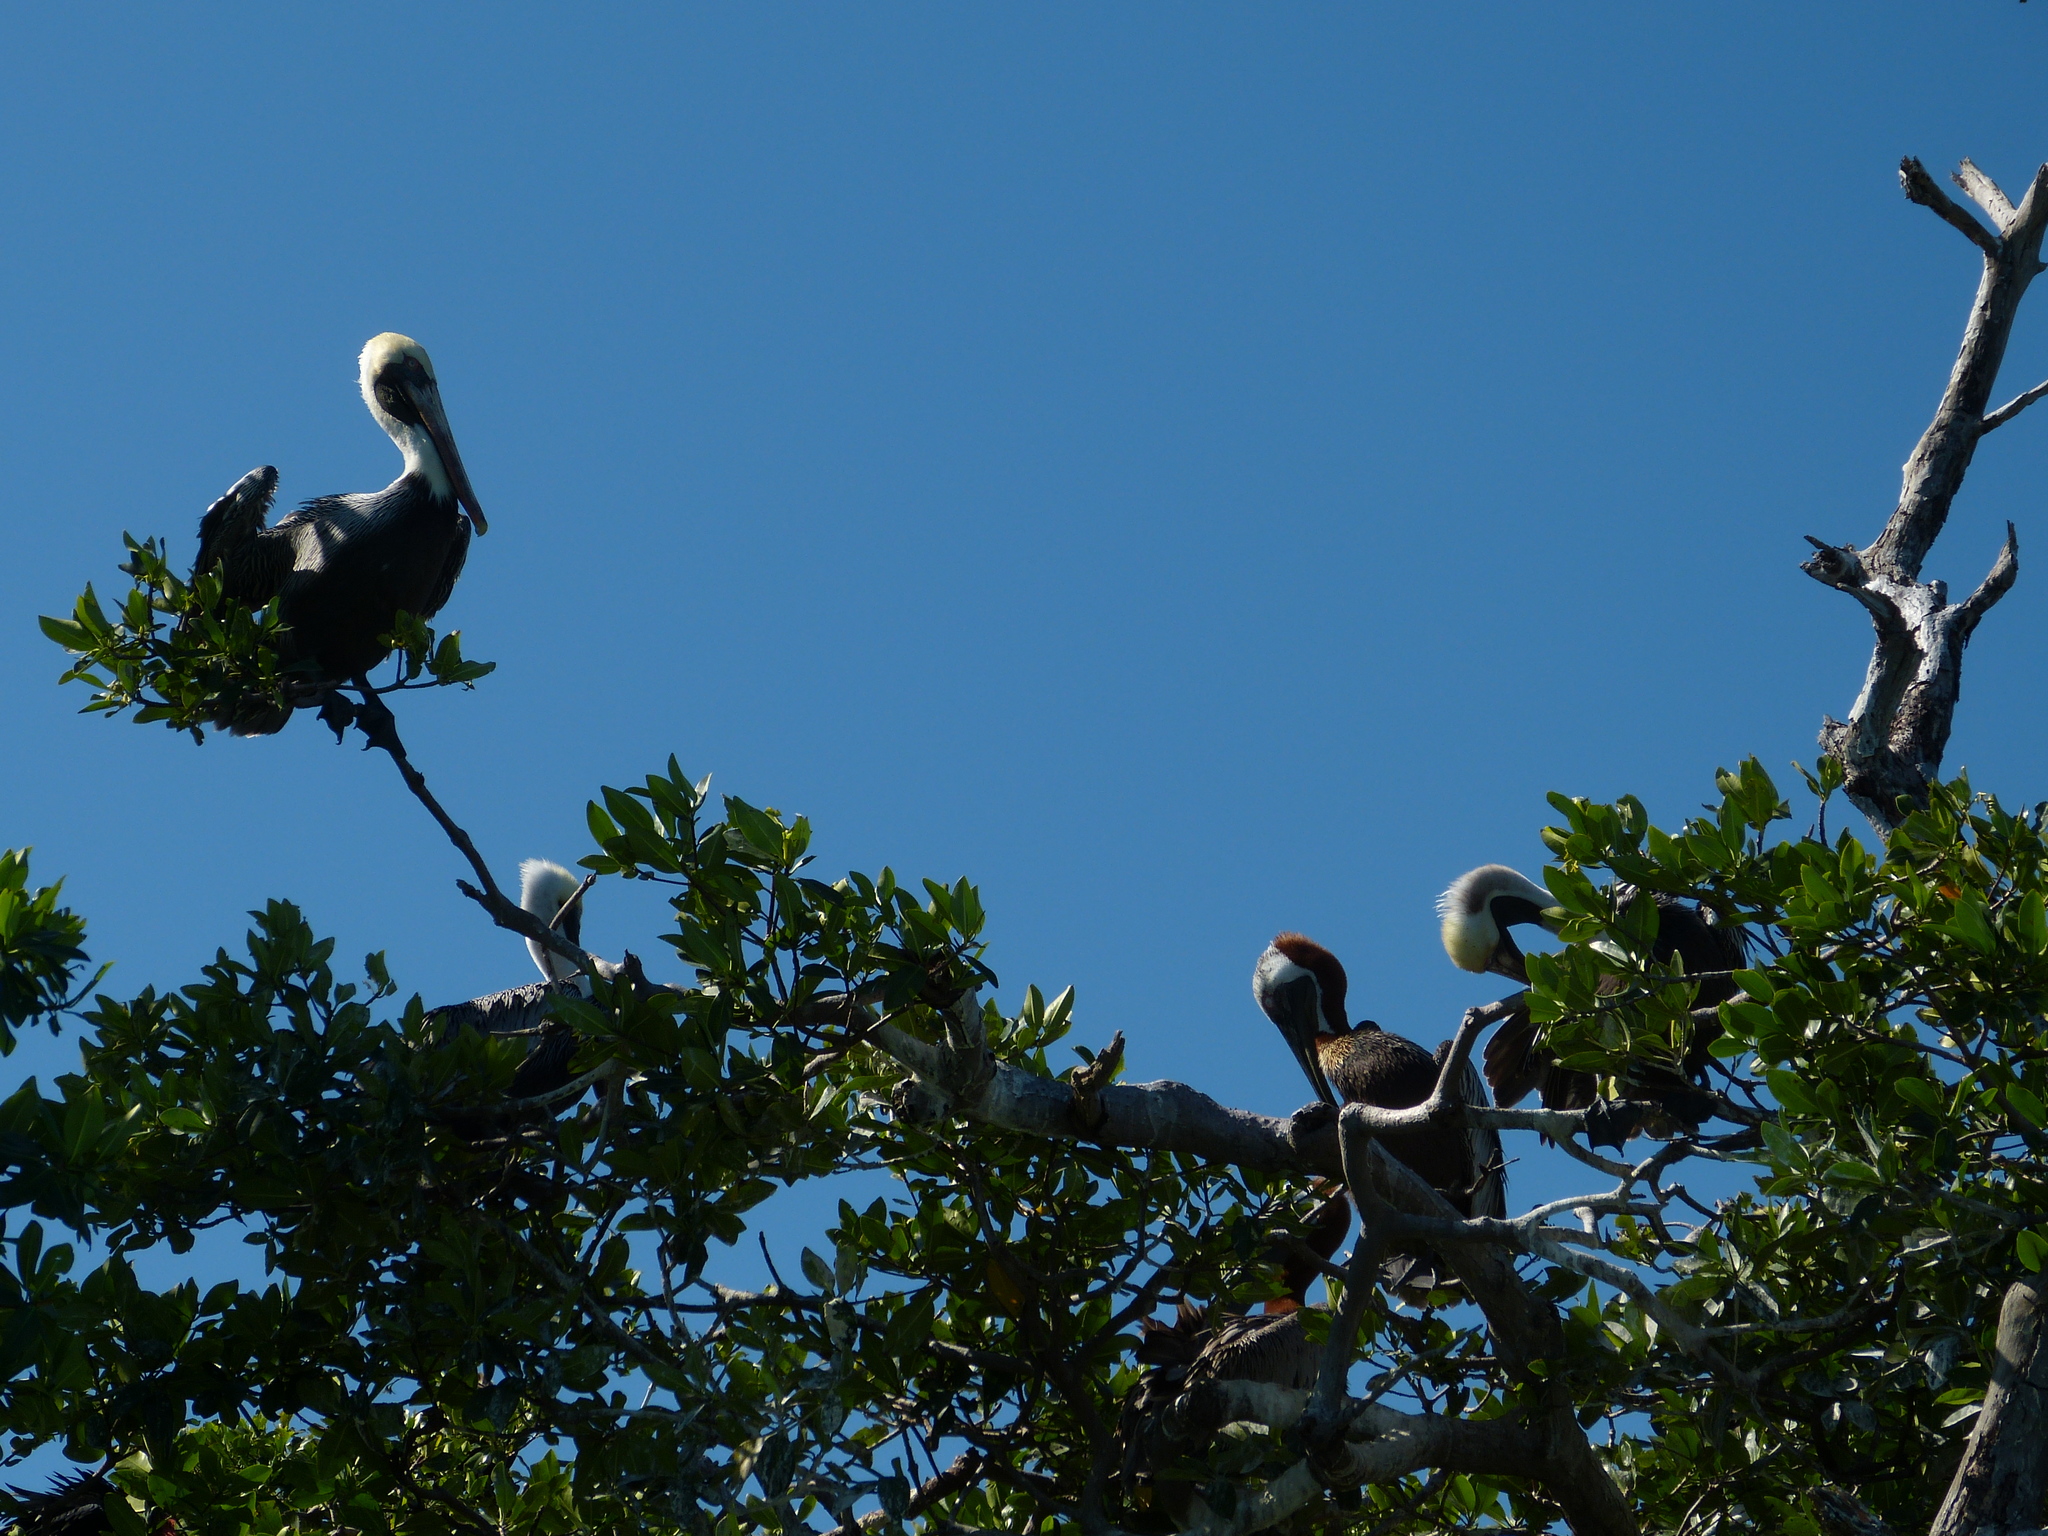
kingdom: Animalia
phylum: Chordata
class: Aves
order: Pelecaniformes
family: Pelecanidae
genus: Pelecanus
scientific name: Pelecanus occidentalis
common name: Brown pelican
